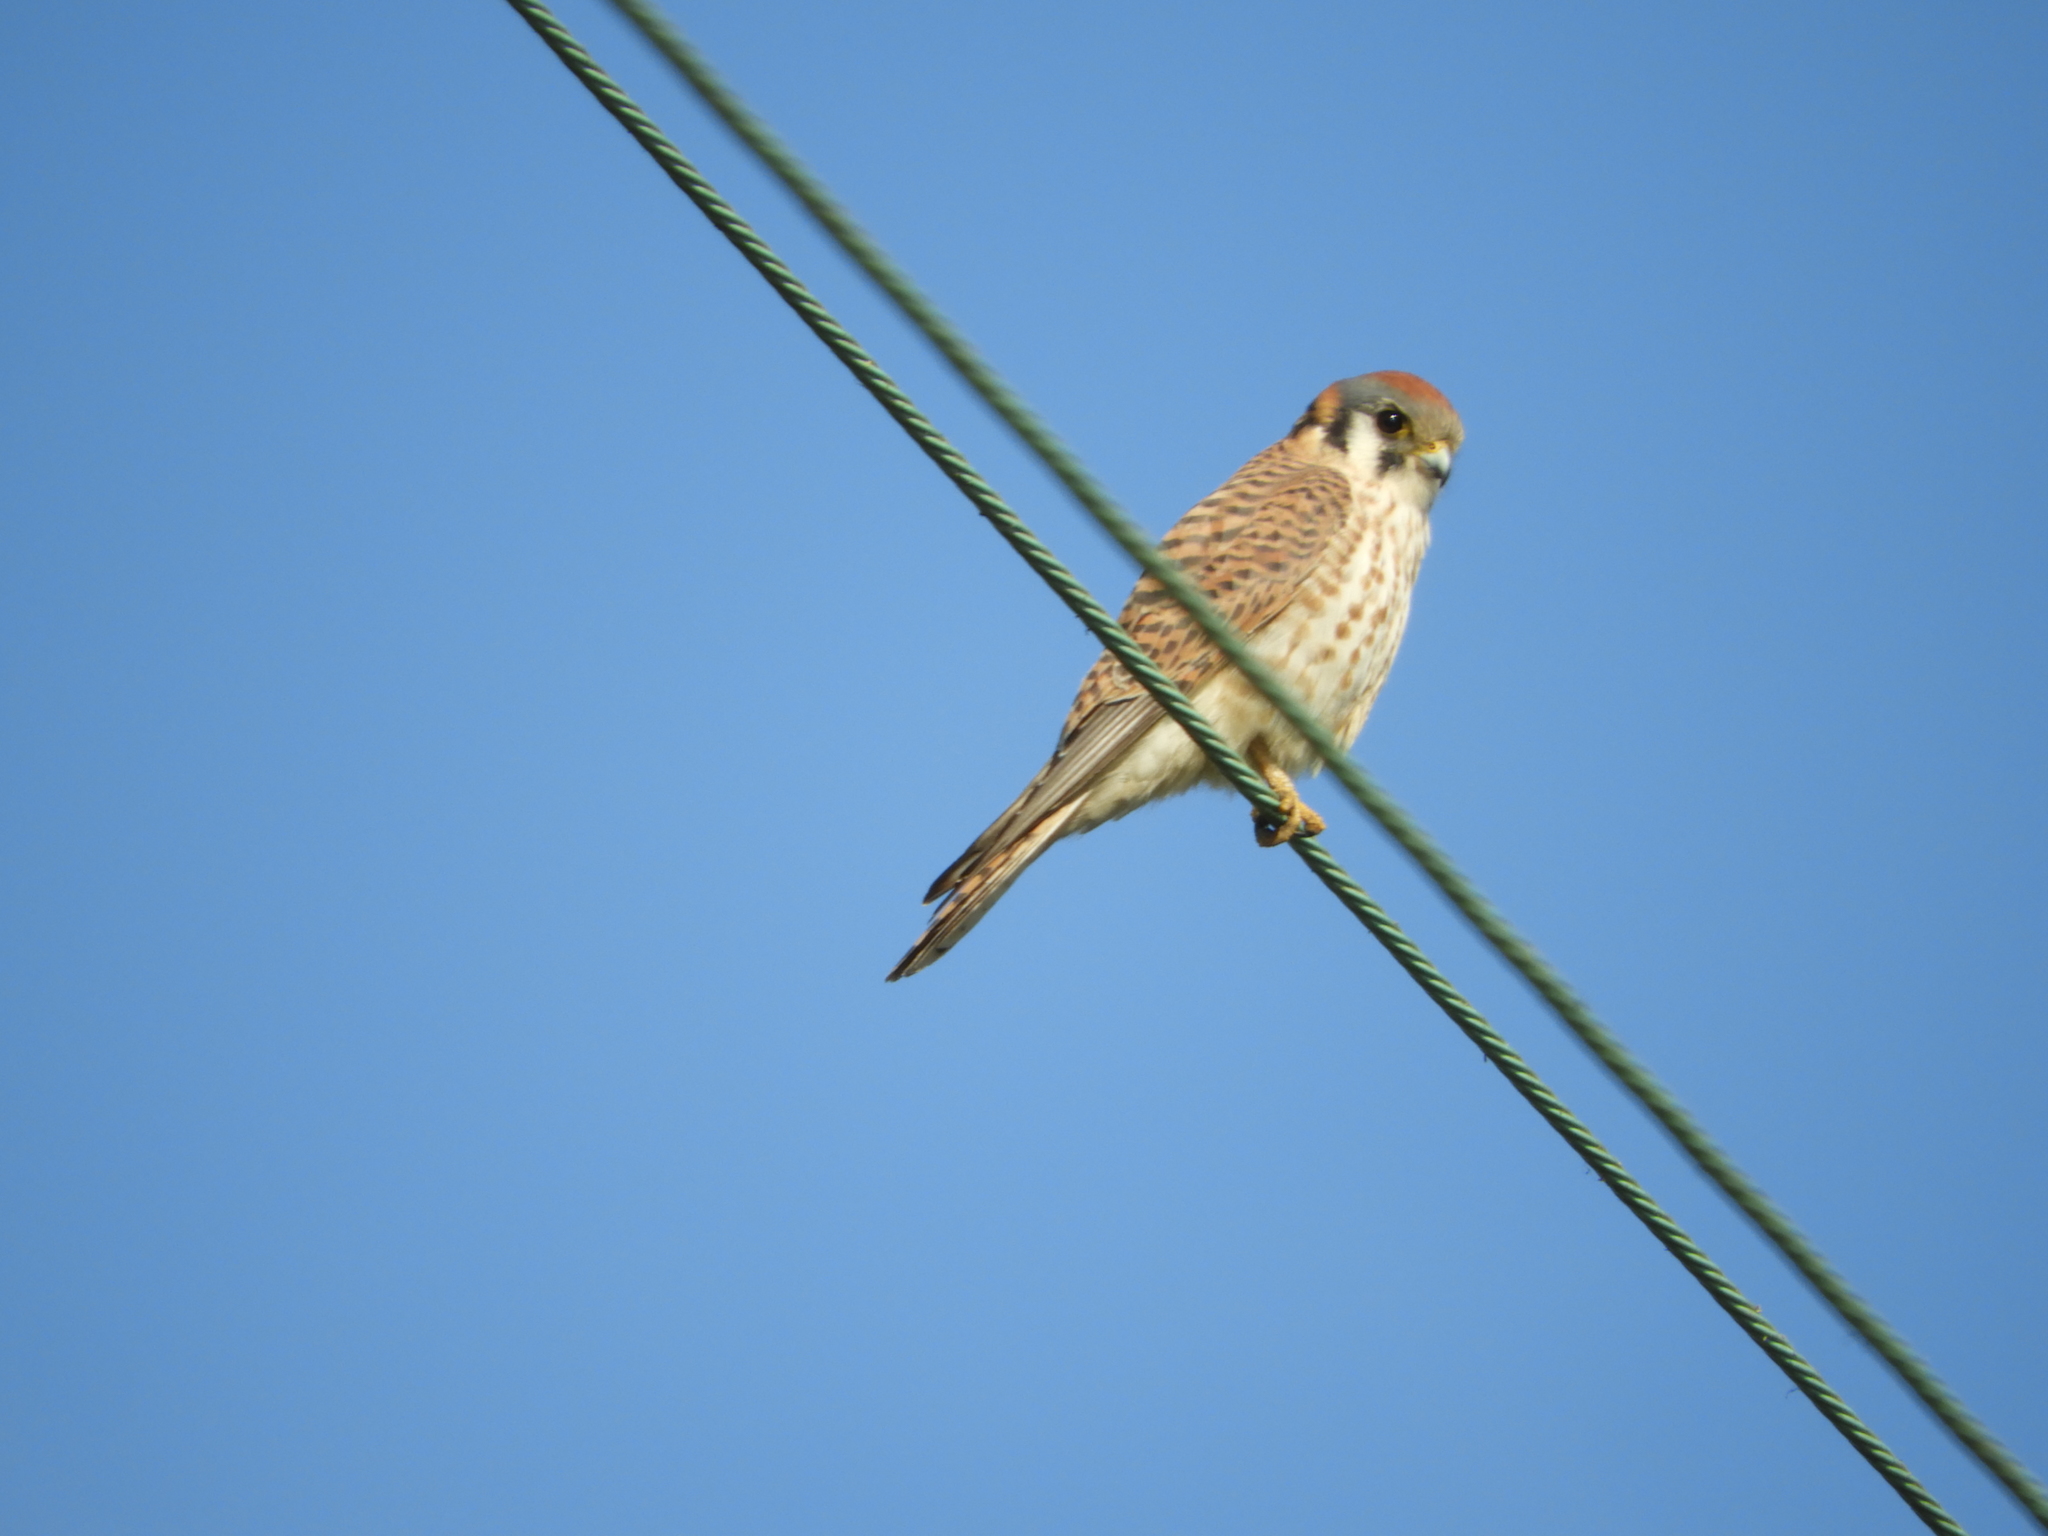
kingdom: Animalia
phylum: Chordata
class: Aves
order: Falconiformes
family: Falconidae
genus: Falco
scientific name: Falco sparverius
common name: American kestrel
